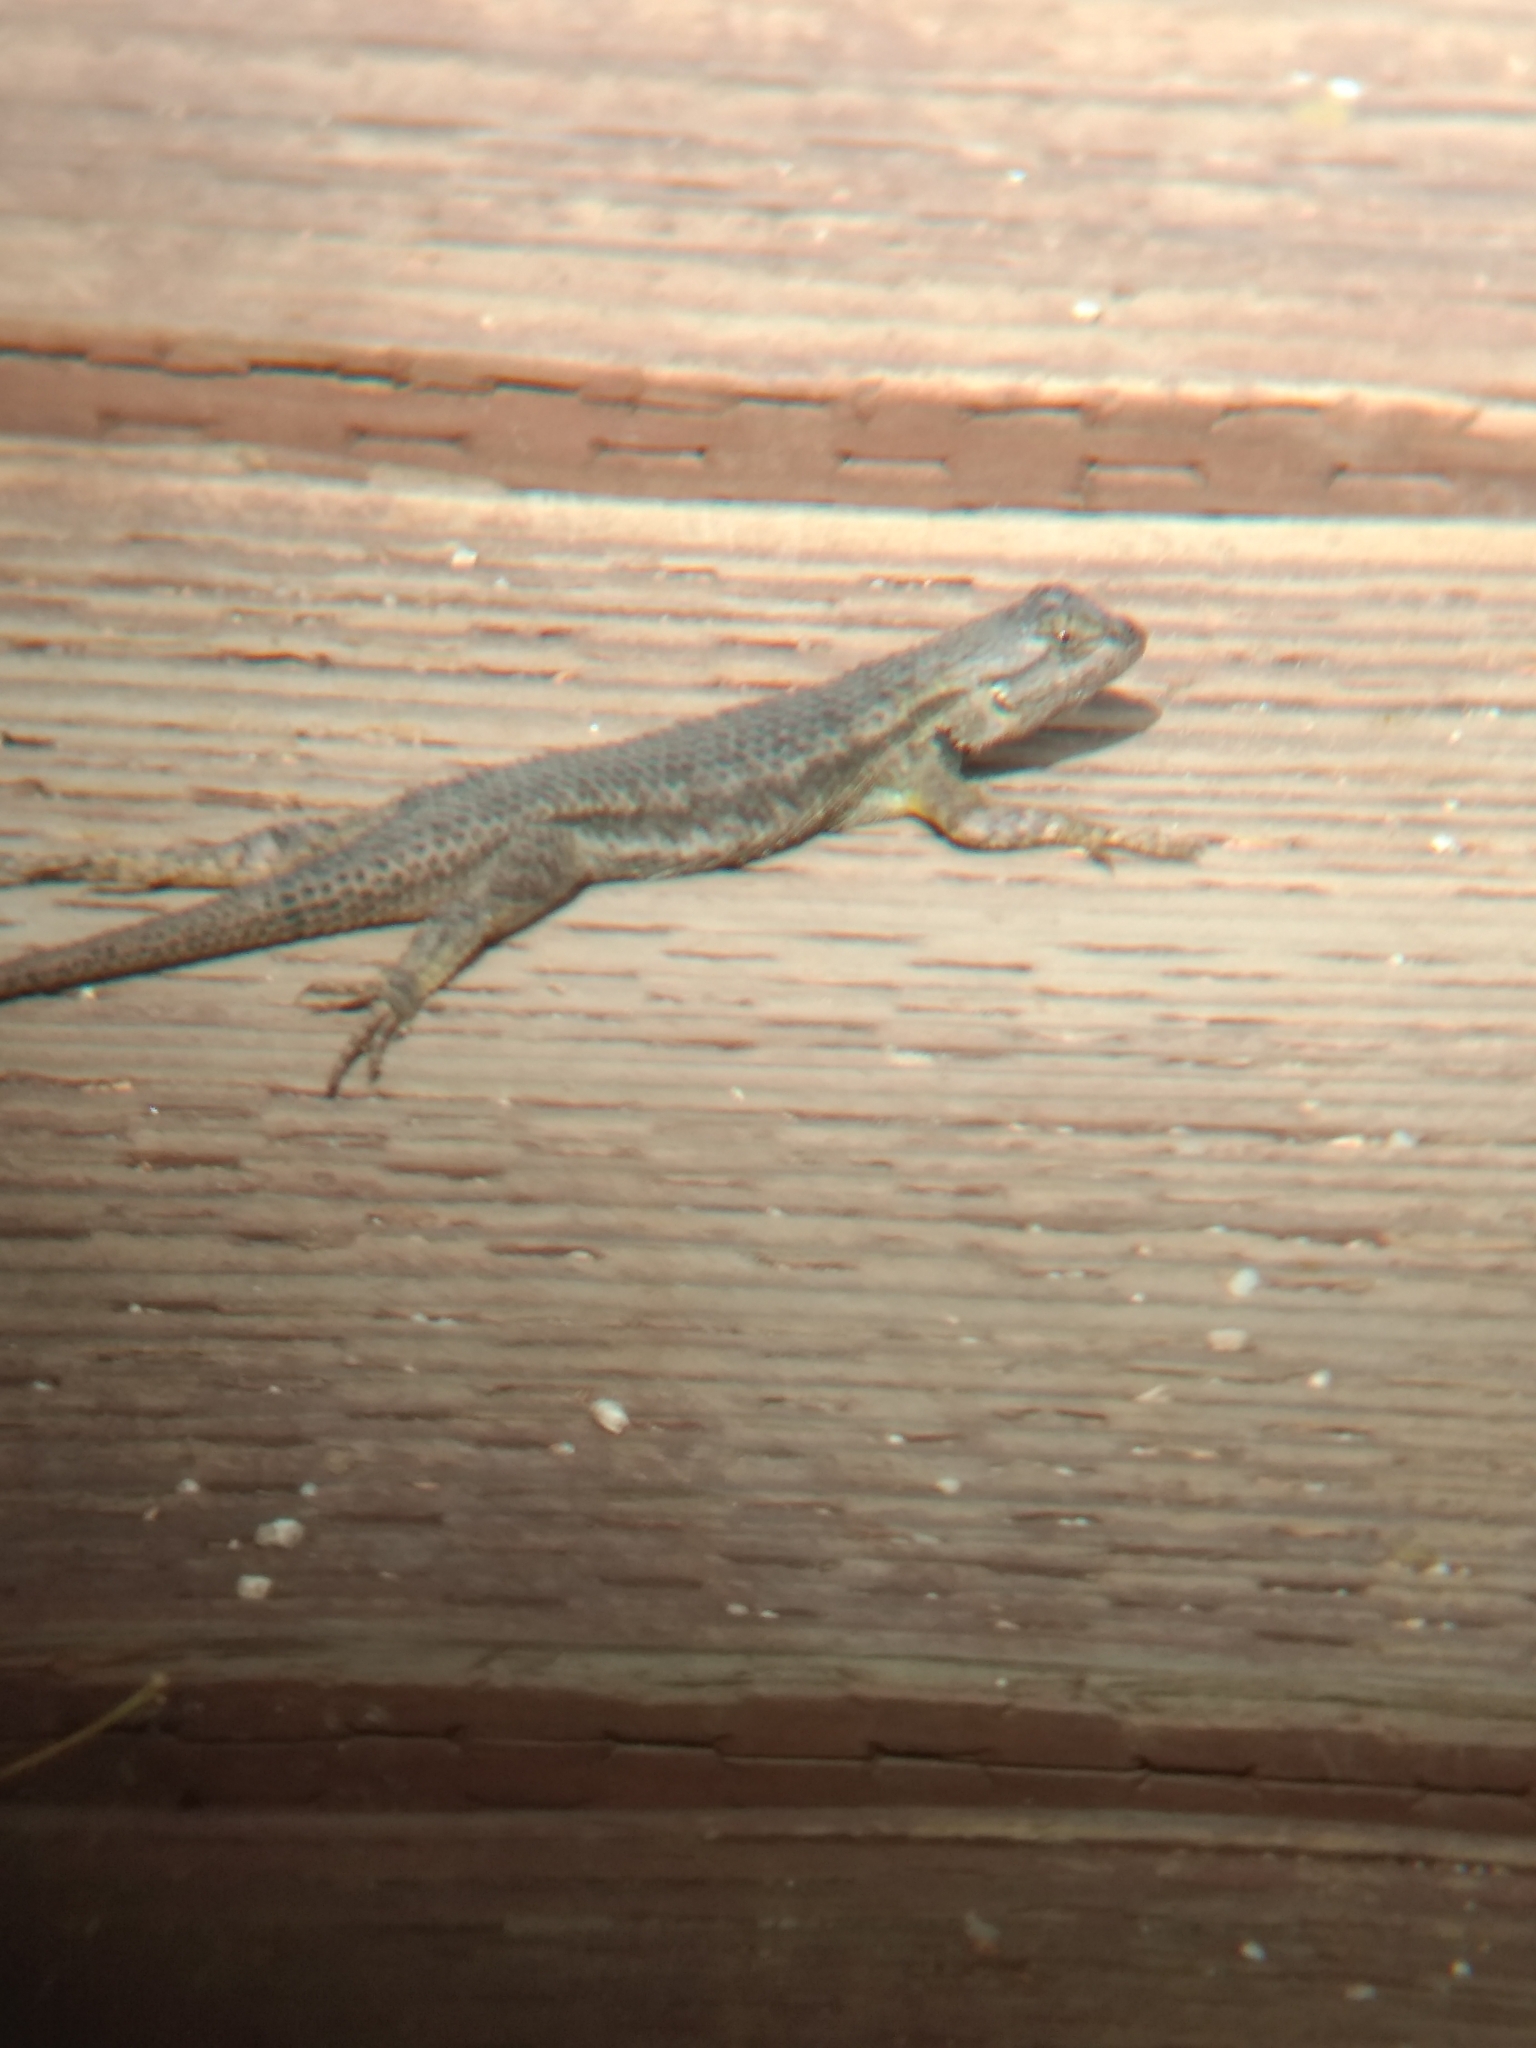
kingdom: Animalia
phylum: Chordata
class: Squamata
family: Phrynosomatidae
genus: Sceloporus
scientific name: Sceloporus occidentalis
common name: Western fence lizard
